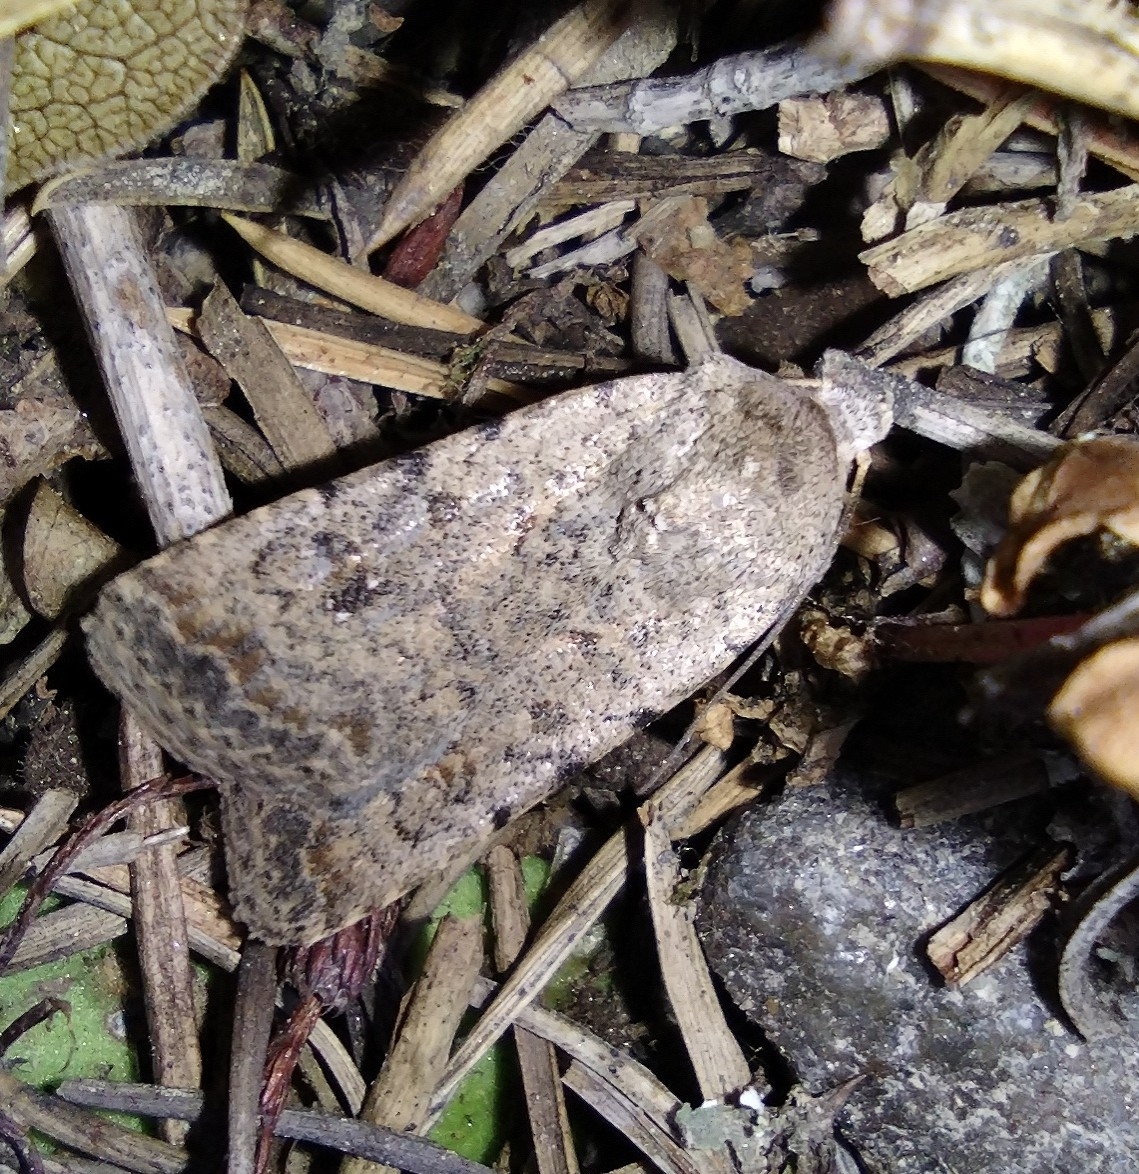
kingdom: Animalia
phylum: Arthropoda
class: Insecta
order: Lepidoptera
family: Noctuidae
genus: Caradrina
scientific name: Caradrina clavipalpis
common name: Pale mottled willow
